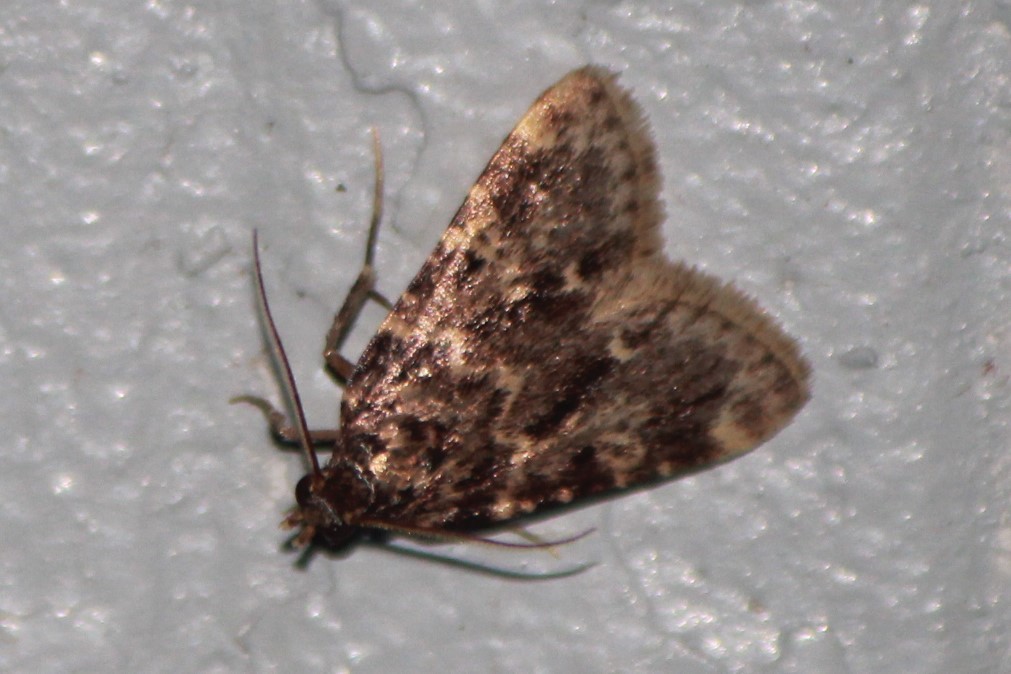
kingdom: Animalia
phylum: Arthropoda
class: Insecta
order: Lepidoptera
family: Pyralidae
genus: Aglossa
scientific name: Aglossa caprealis
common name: Small tabby
